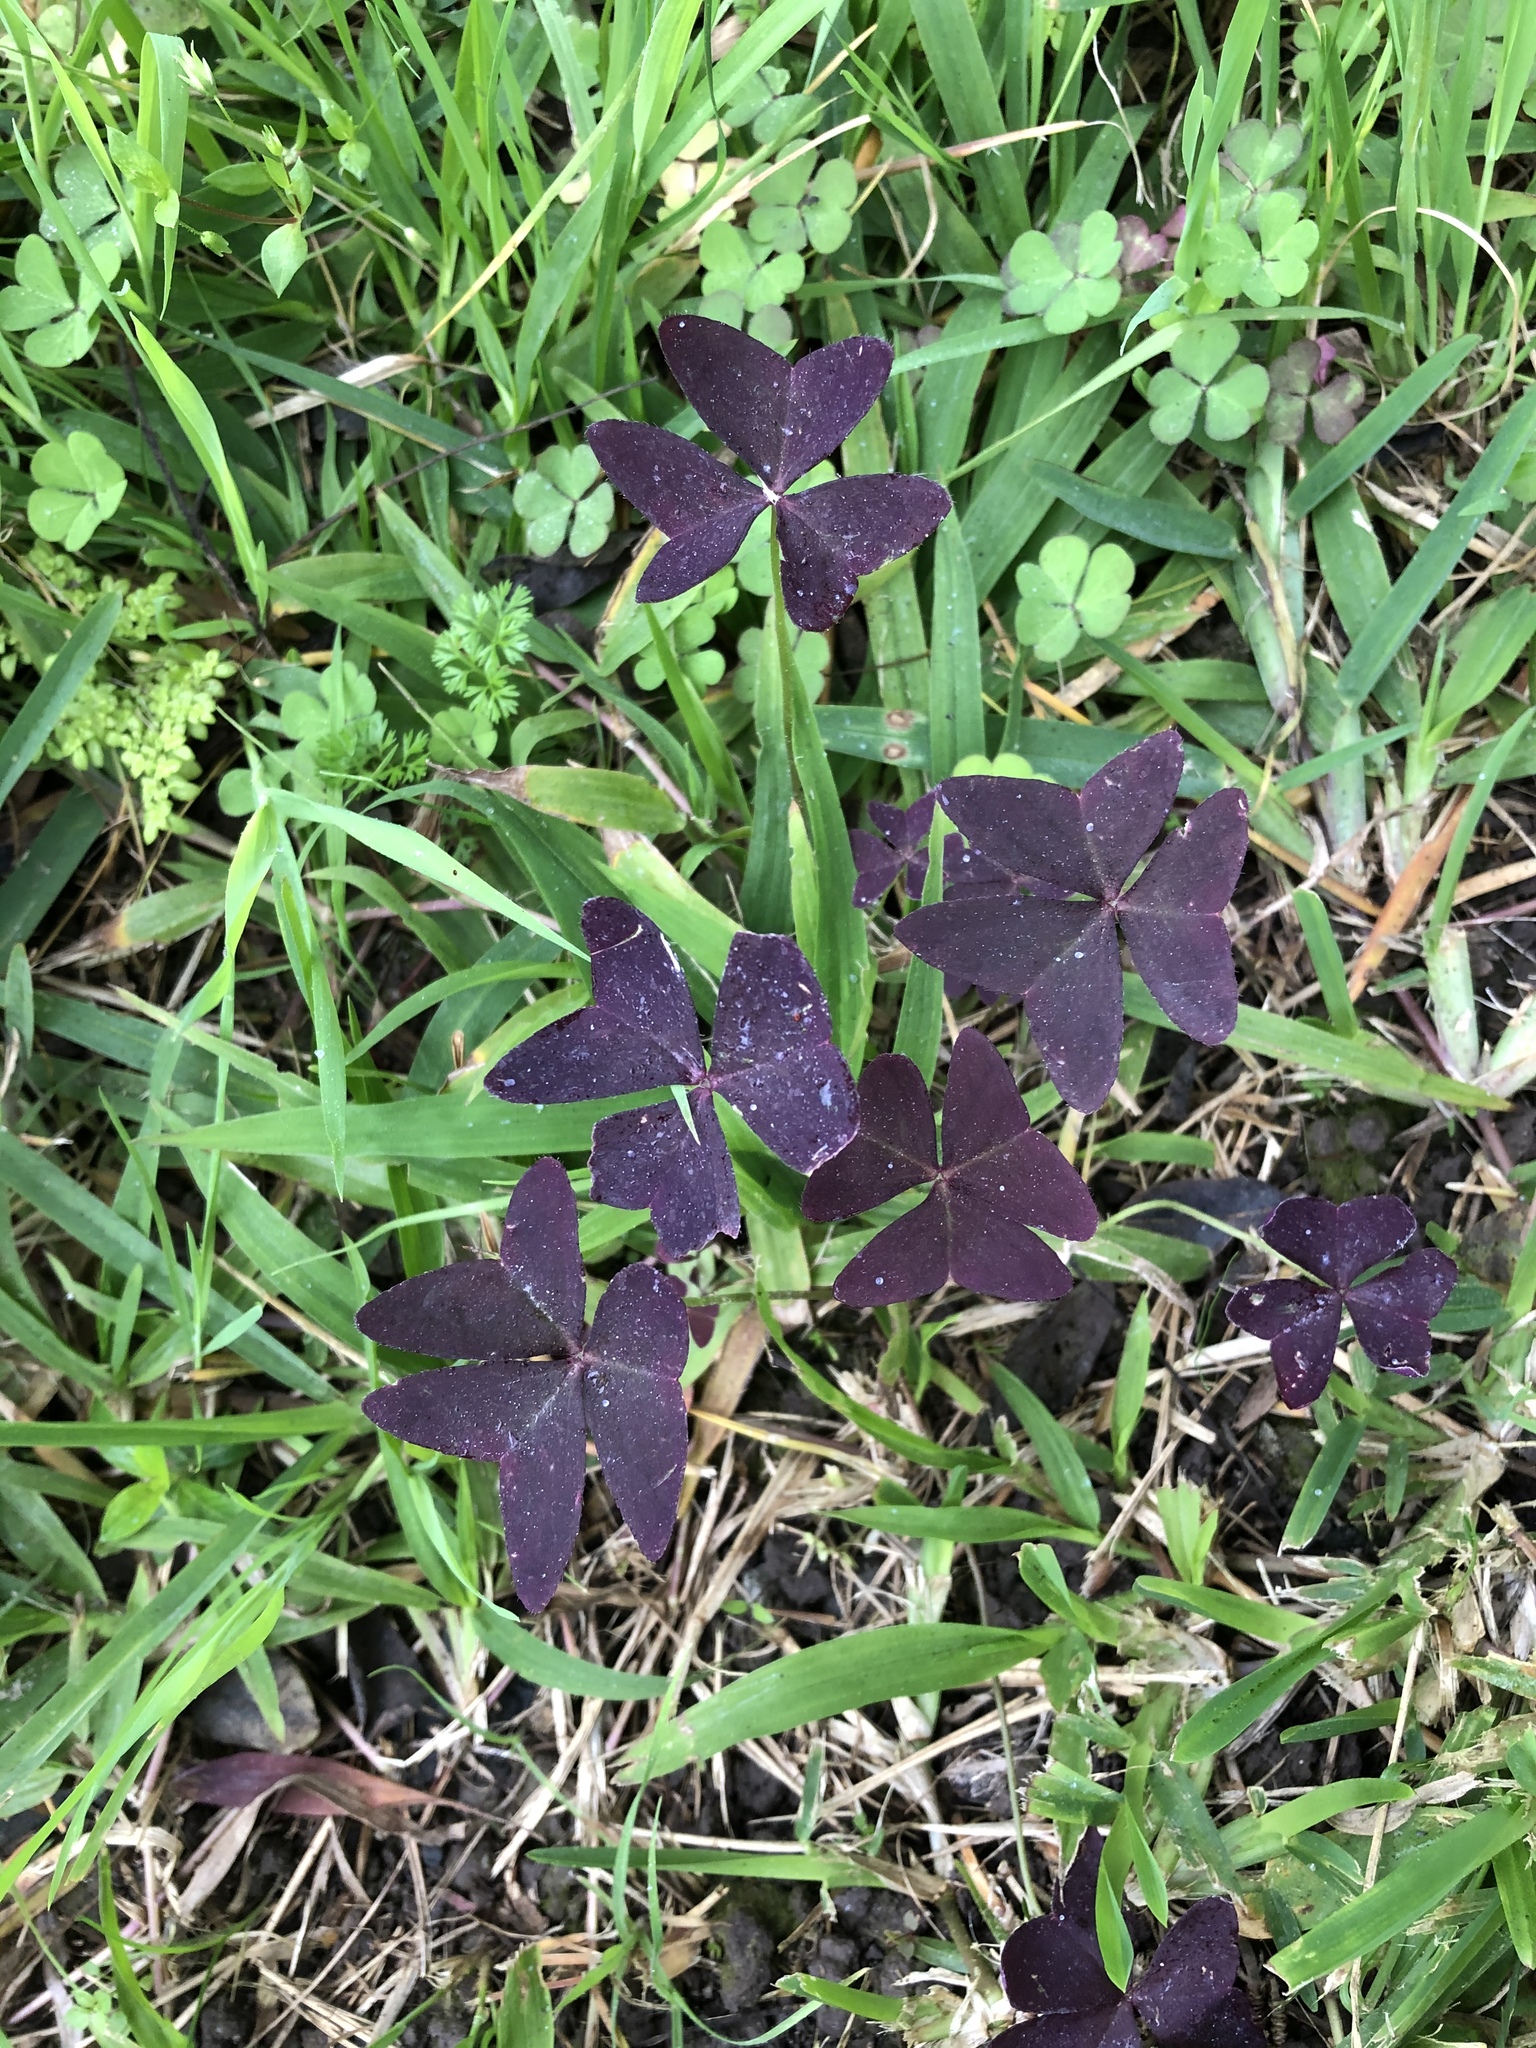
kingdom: Plantae
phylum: Tracheophyta
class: Magnoliopsida
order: Oxalidales
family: Oxalidaceae
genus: Oxalis
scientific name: Oxalis triangularis
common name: Wood sorrel
